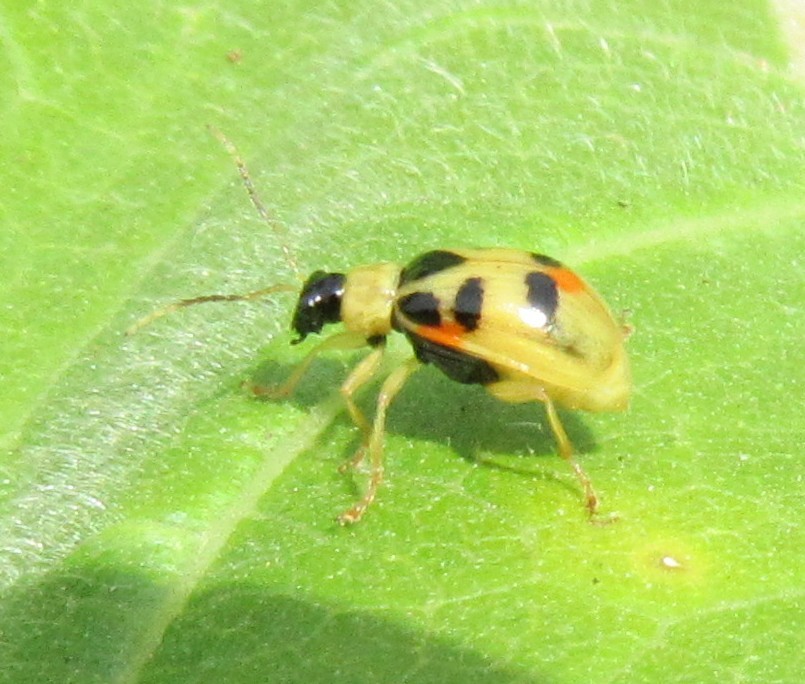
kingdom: Animalia
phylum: Arthropoda
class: Insecta
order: Coleoptera
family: Chrysomelidae
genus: Cerotoma
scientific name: Cerotoma ruficornis
